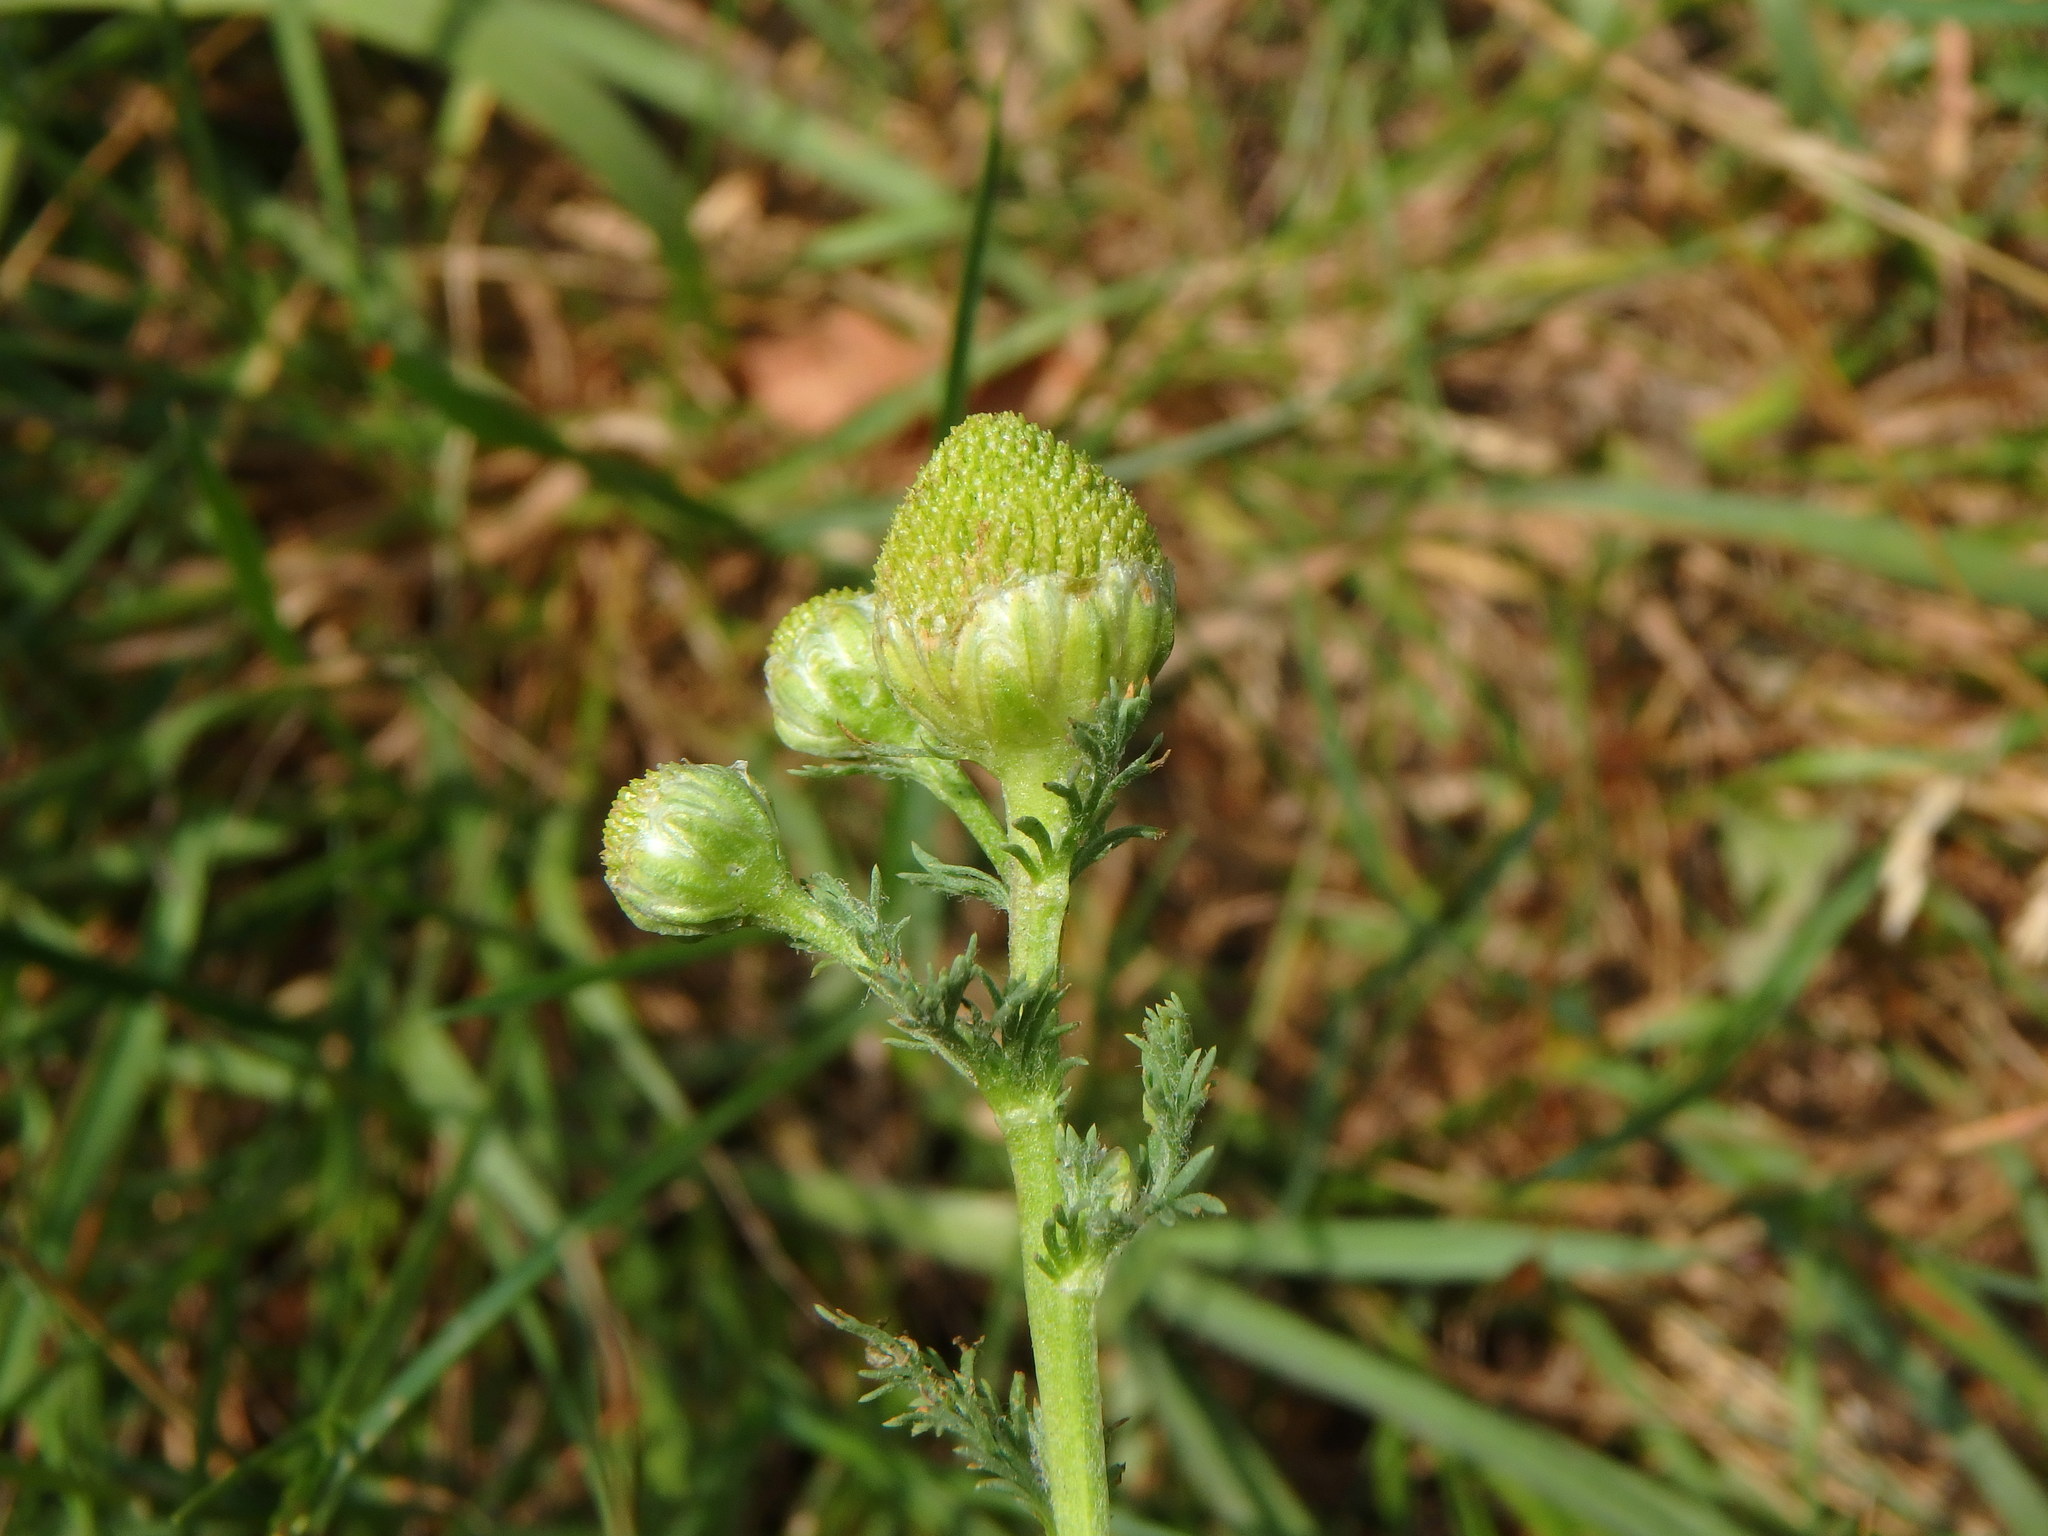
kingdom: Plantae
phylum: Tracheophyta
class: Magnoliopsida
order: Asterales
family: Asteraceae
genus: Matricaria
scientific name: Matricaria discoidea
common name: Disc mayweed
